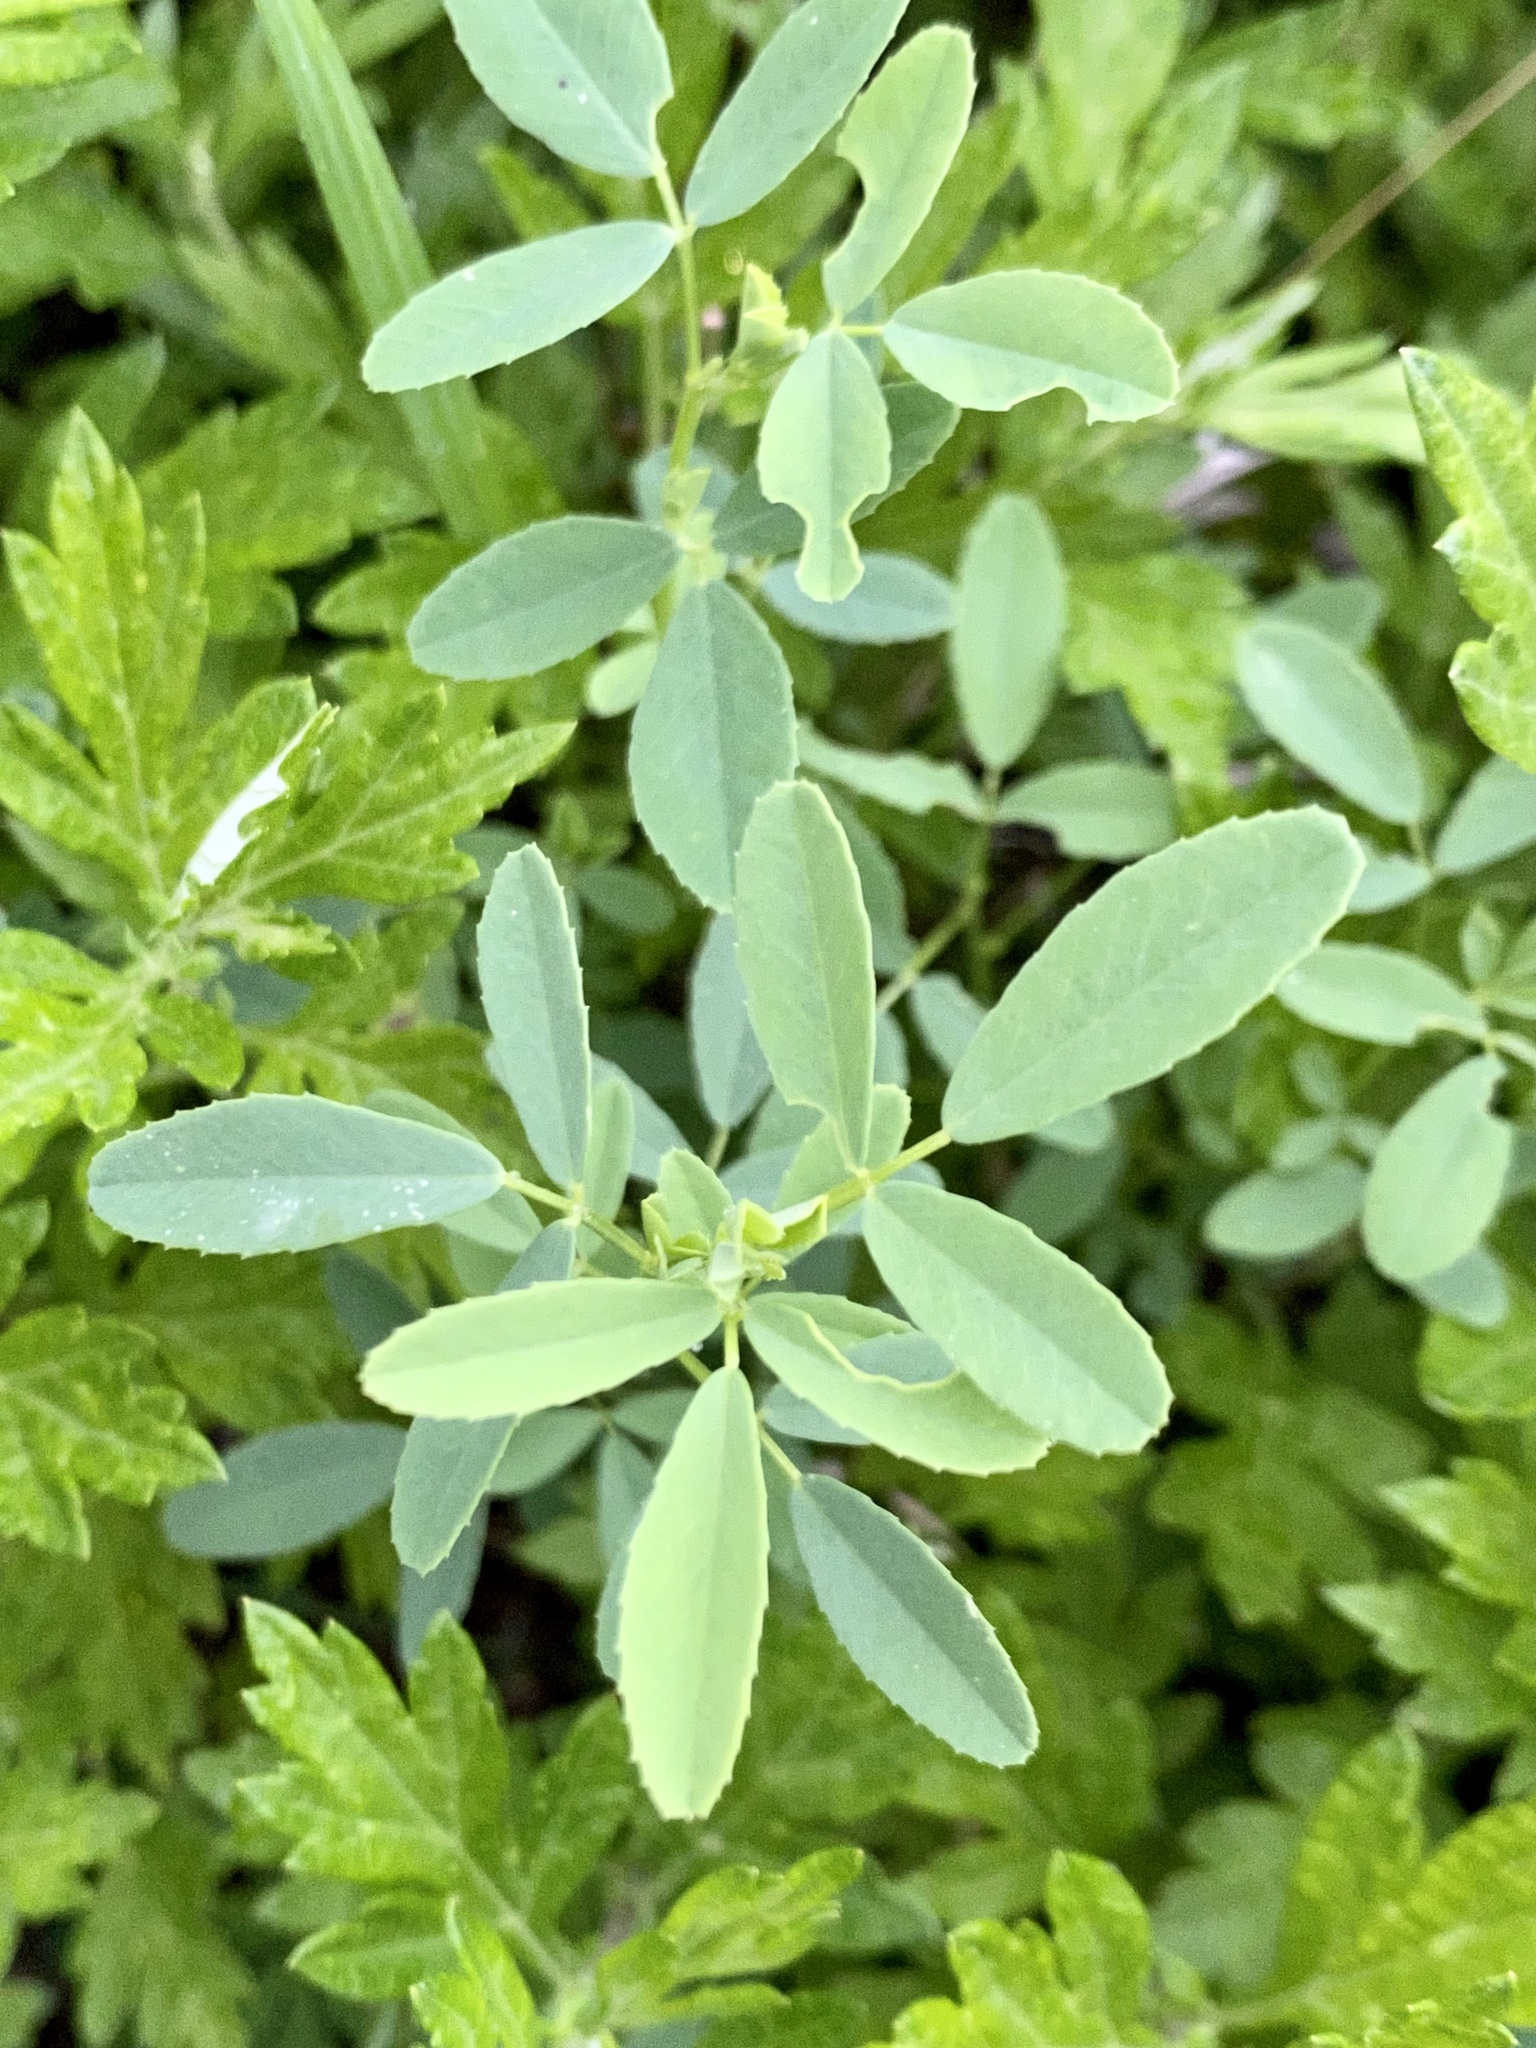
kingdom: Plantae
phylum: Tracheophyta
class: Magnoliopsida
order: Fabales
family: Fabaceae
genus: Melilotus
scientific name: Melilotus albus
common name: White melilot
